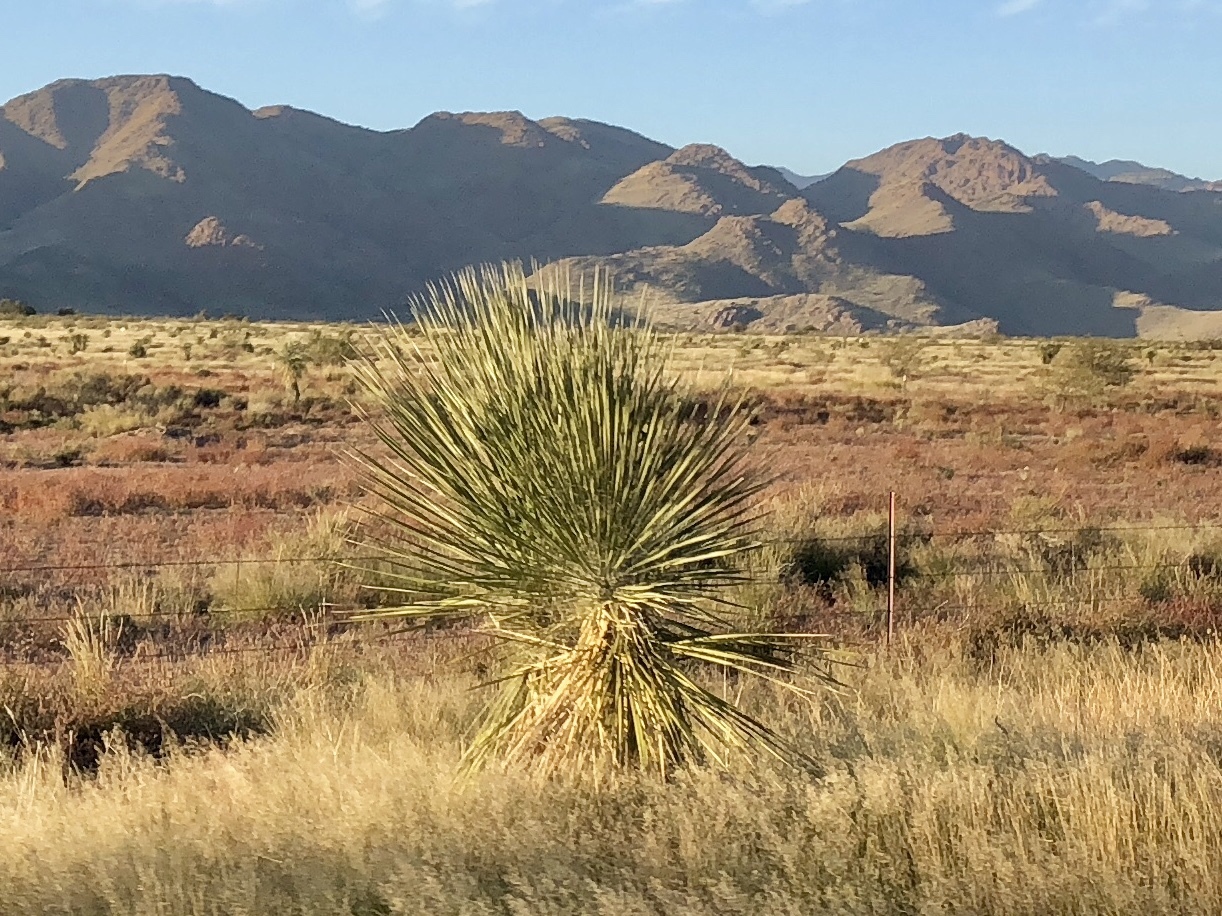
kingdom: Plantae
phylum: Tracheophyta
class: Liliopsida
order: Asparagales
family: Asparagaceae
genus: Yucca
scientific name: Yucca elata
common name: Palmella
